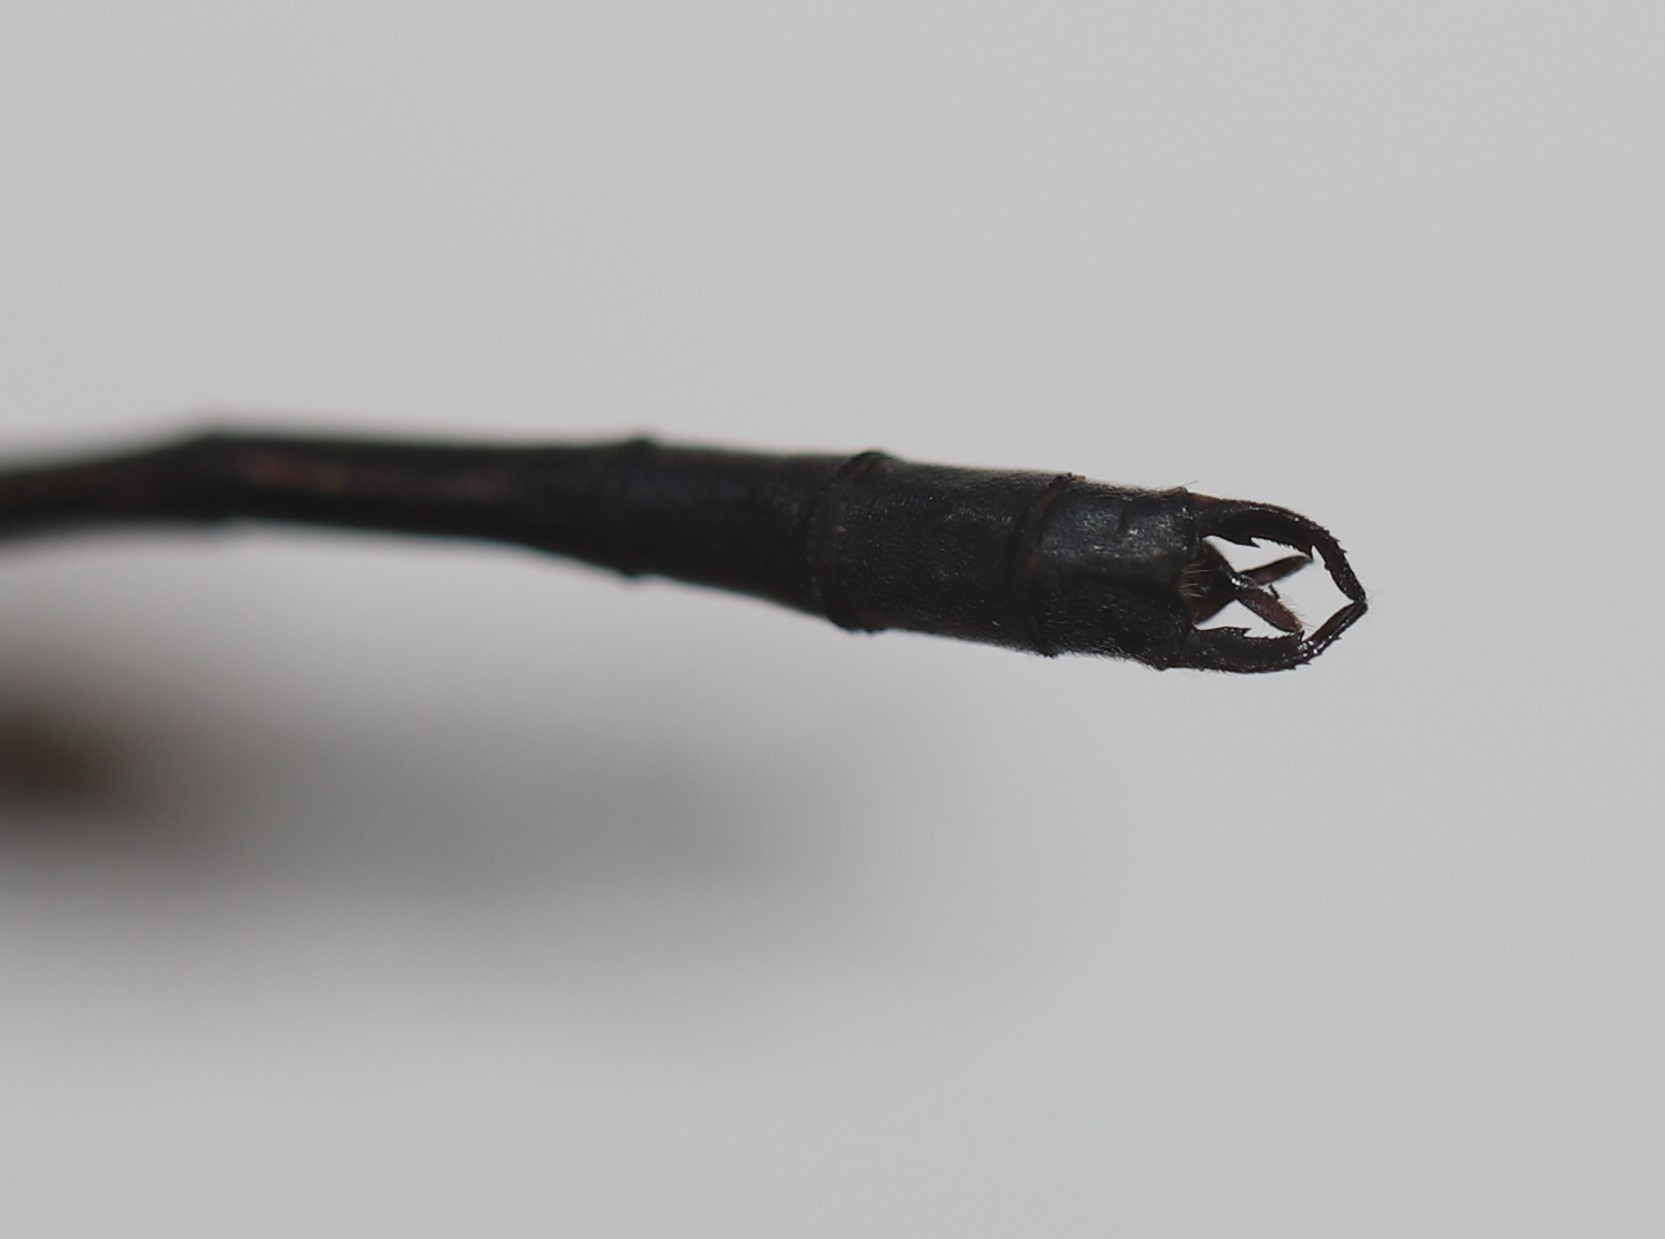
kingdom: Animalia
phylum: Arthropoda
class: Insecta
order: Odonata
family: Lestidae
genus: Lestes
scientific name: Lestes disjunctus
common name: Northern spreadwing
